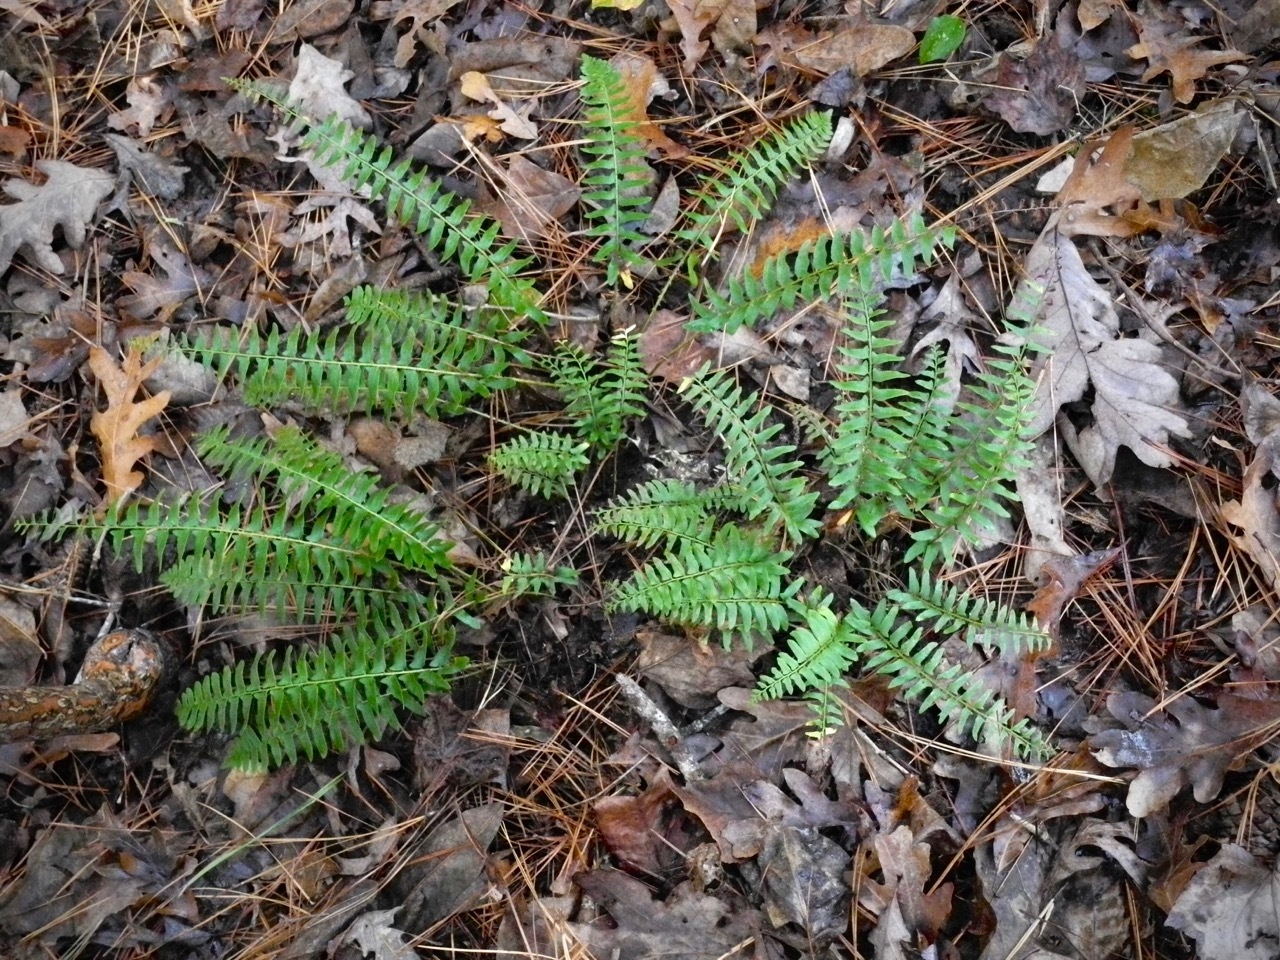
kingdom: Plantae
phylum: Tracheophyta
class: Polypodiopsida
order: Polypodiales
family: Dryopteridaceae
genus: Polystichum
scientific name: Polystichum acrostichoides
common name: Christmas fern
